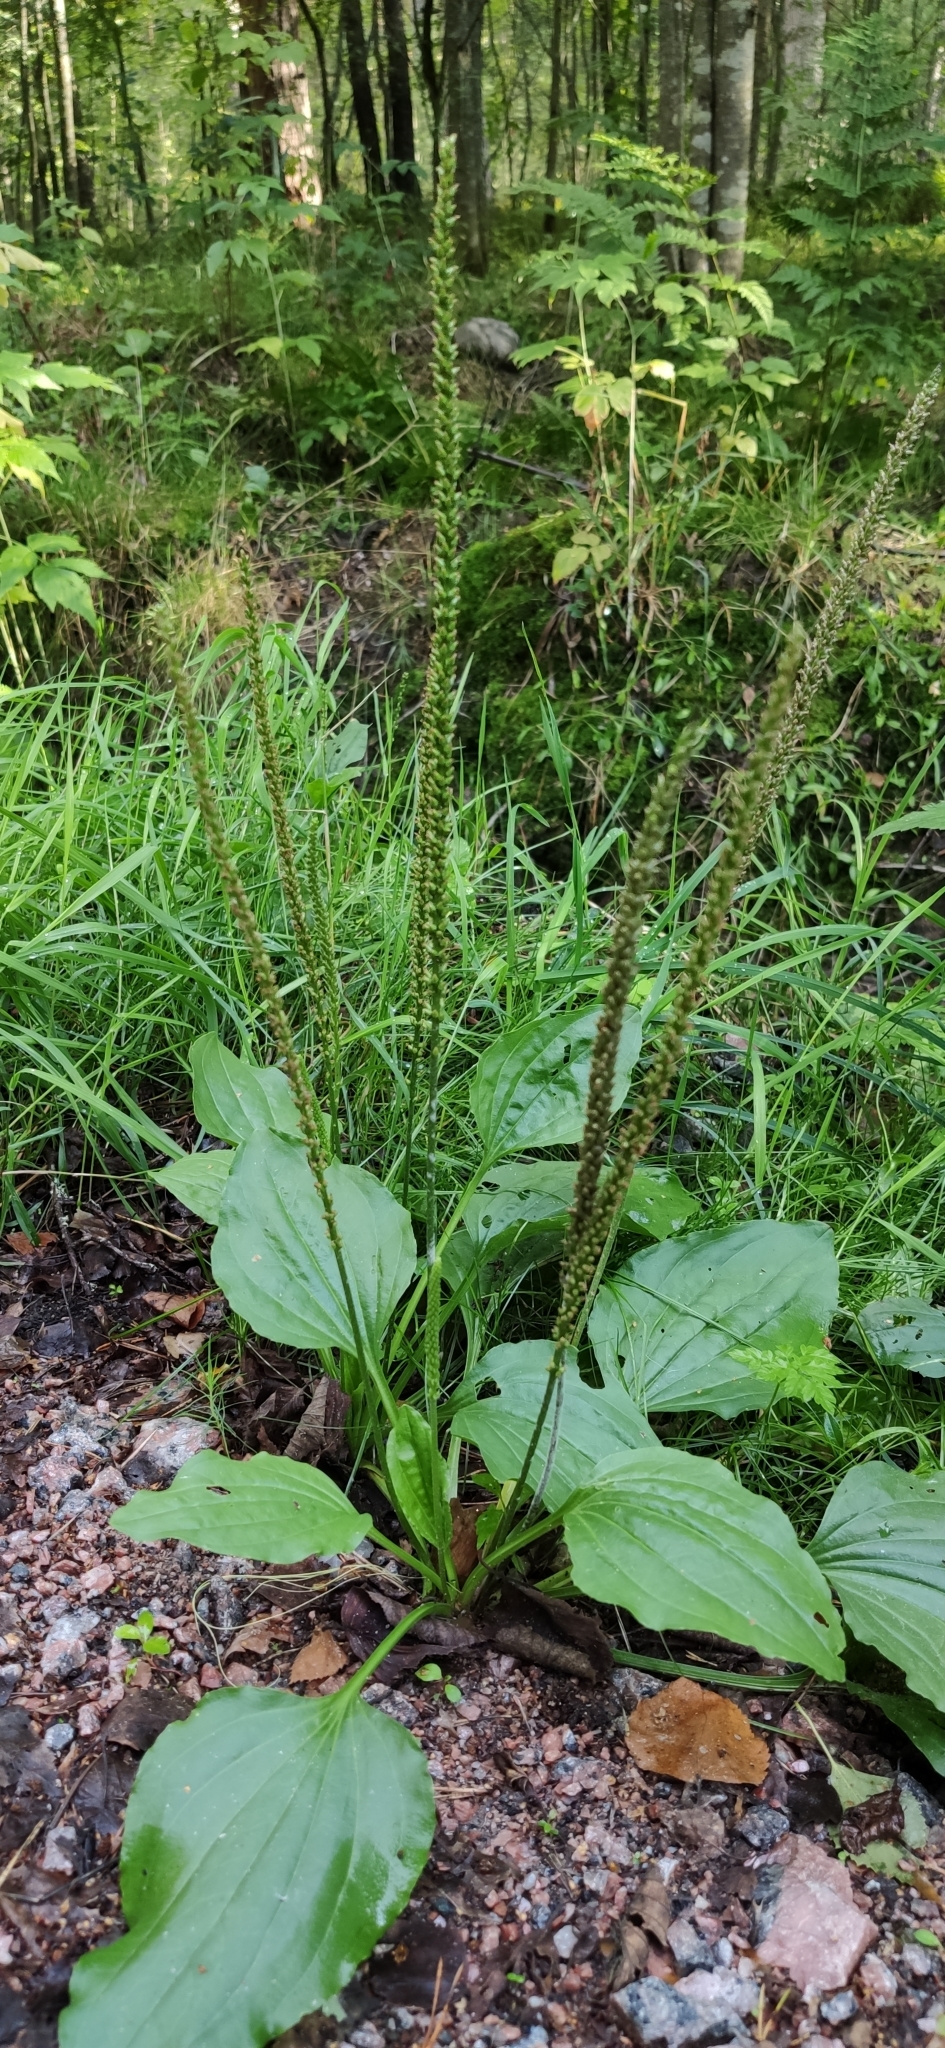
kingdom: Plantae
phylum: Tracheophyta
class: Magnoliopsida
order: Lamiales
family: Plantaginaceae
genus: Plantago
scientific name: Plantago major
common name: Common plantain
